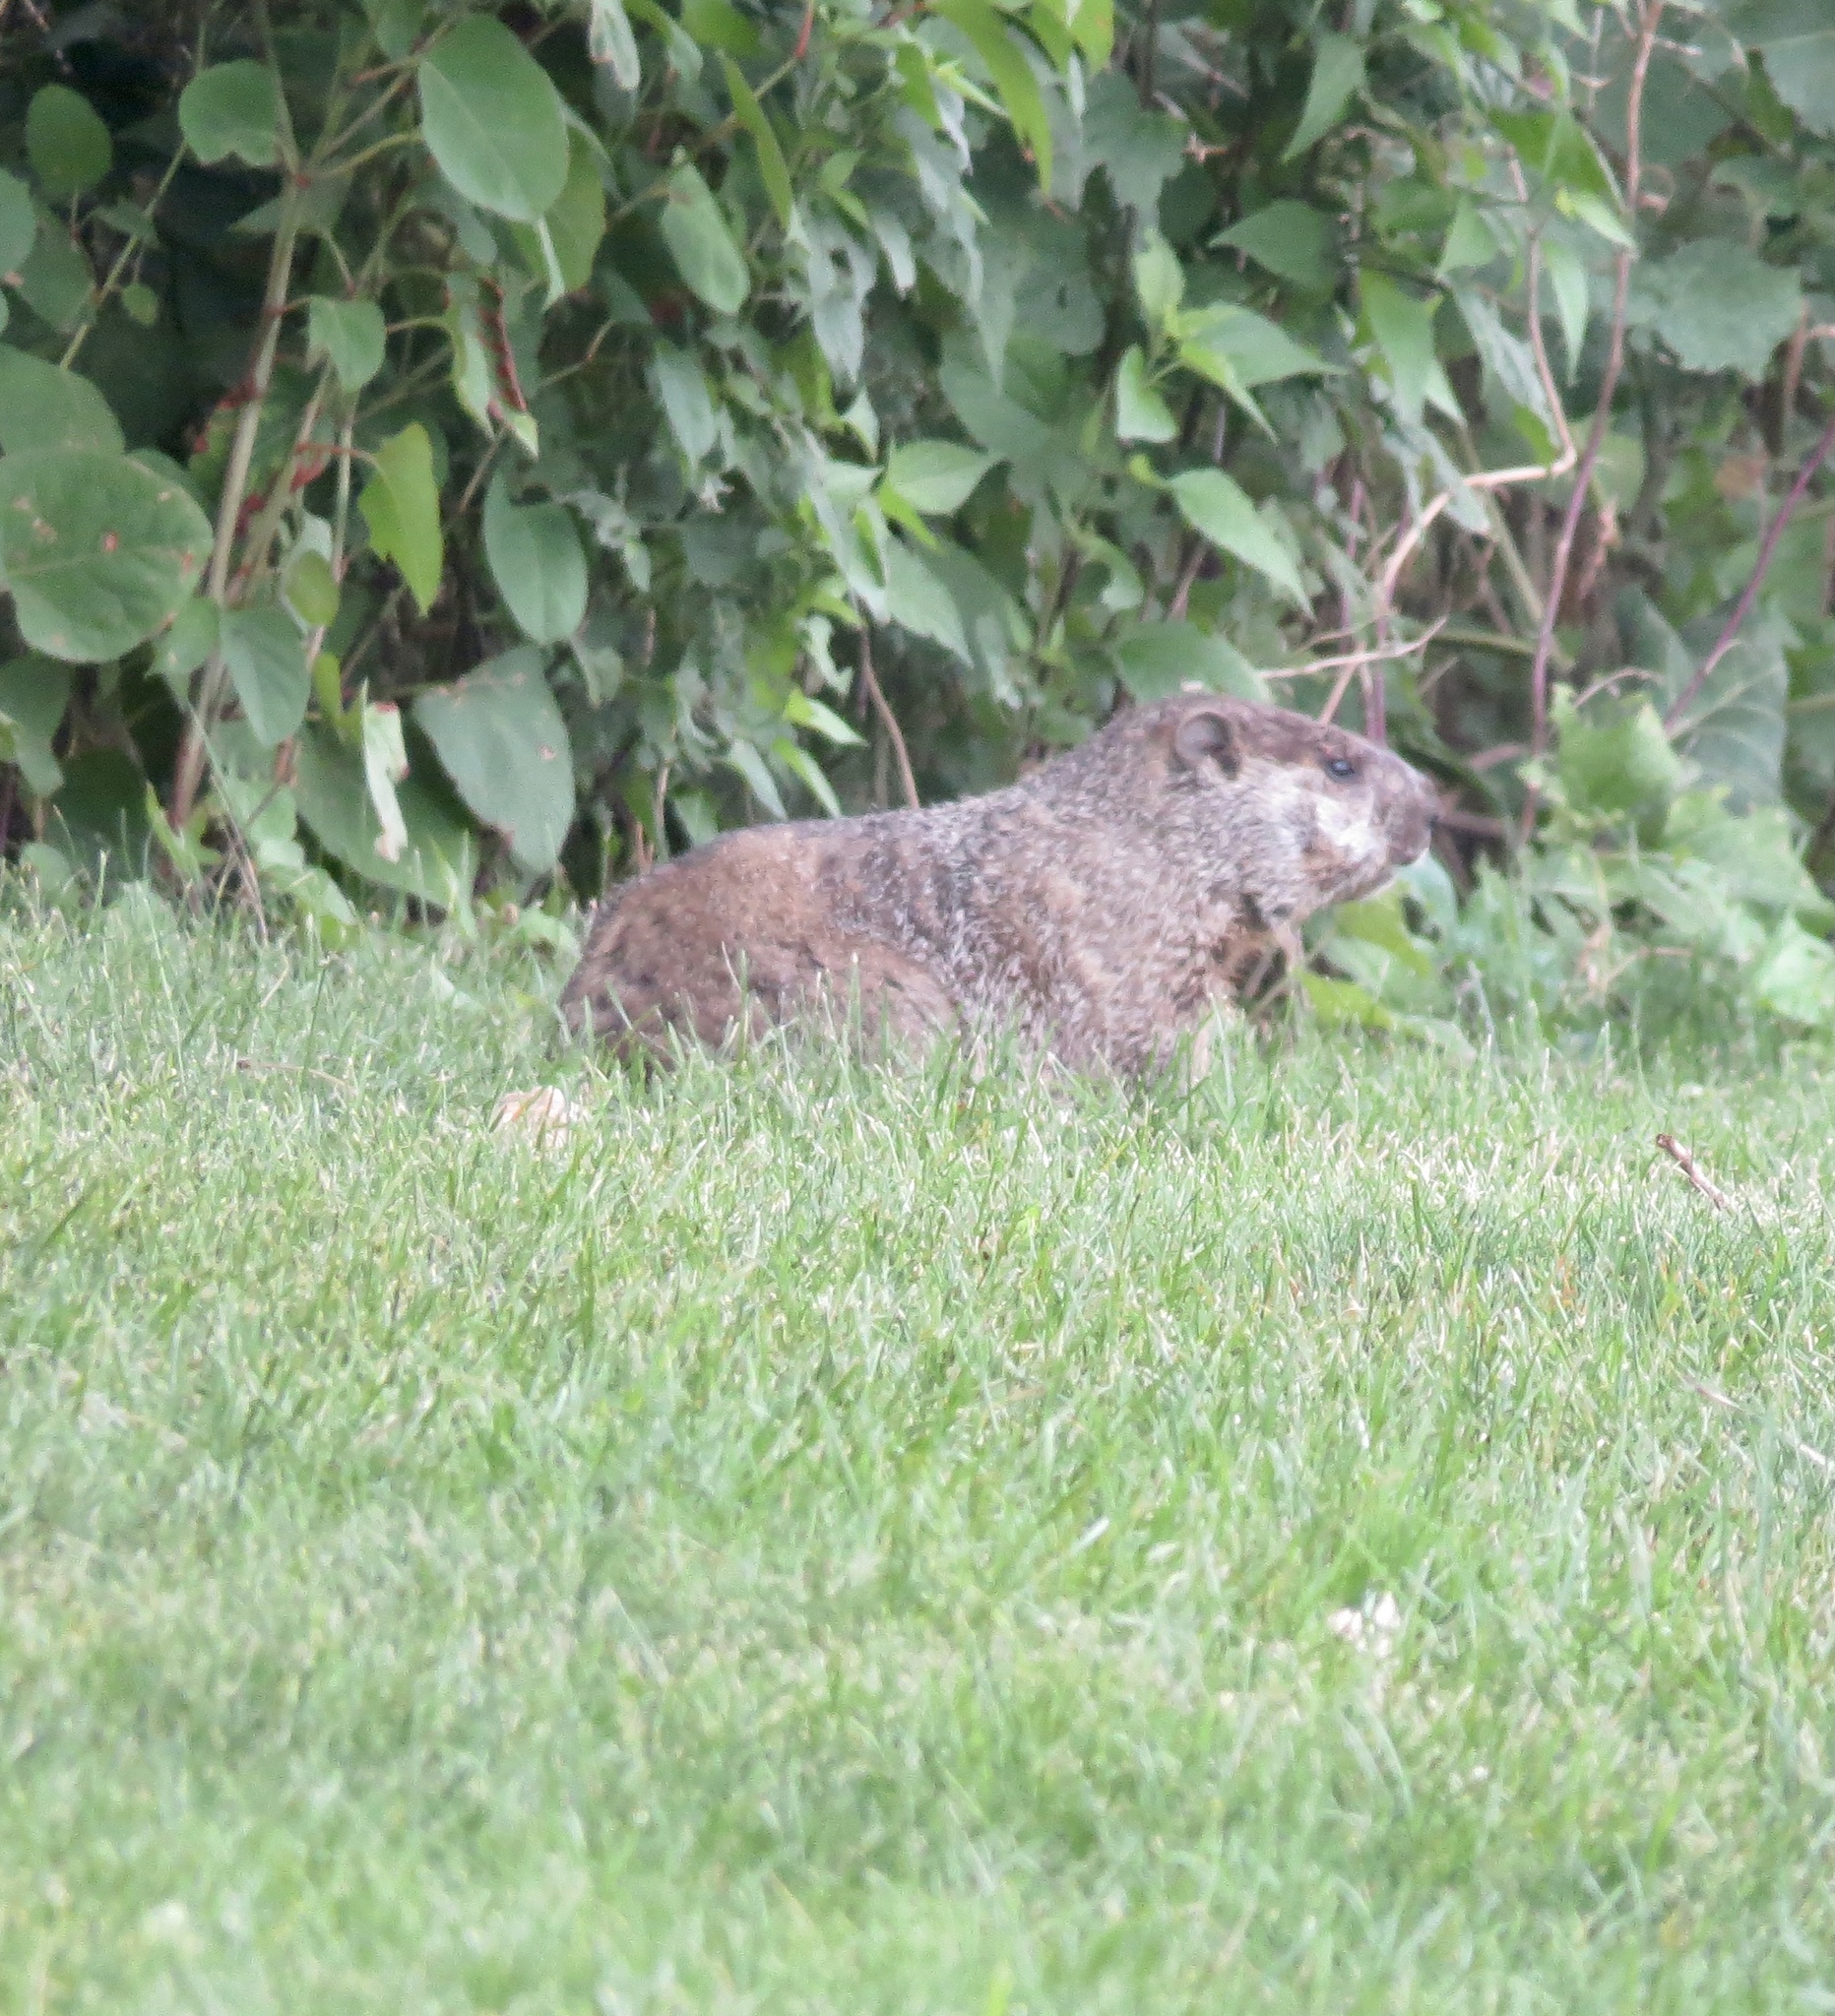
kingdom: Animalia
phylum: Chordata
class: Mammalia
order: Rodentia
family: Sciuridae
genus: Marmota
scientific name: Marmota monax
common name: Groundhog
